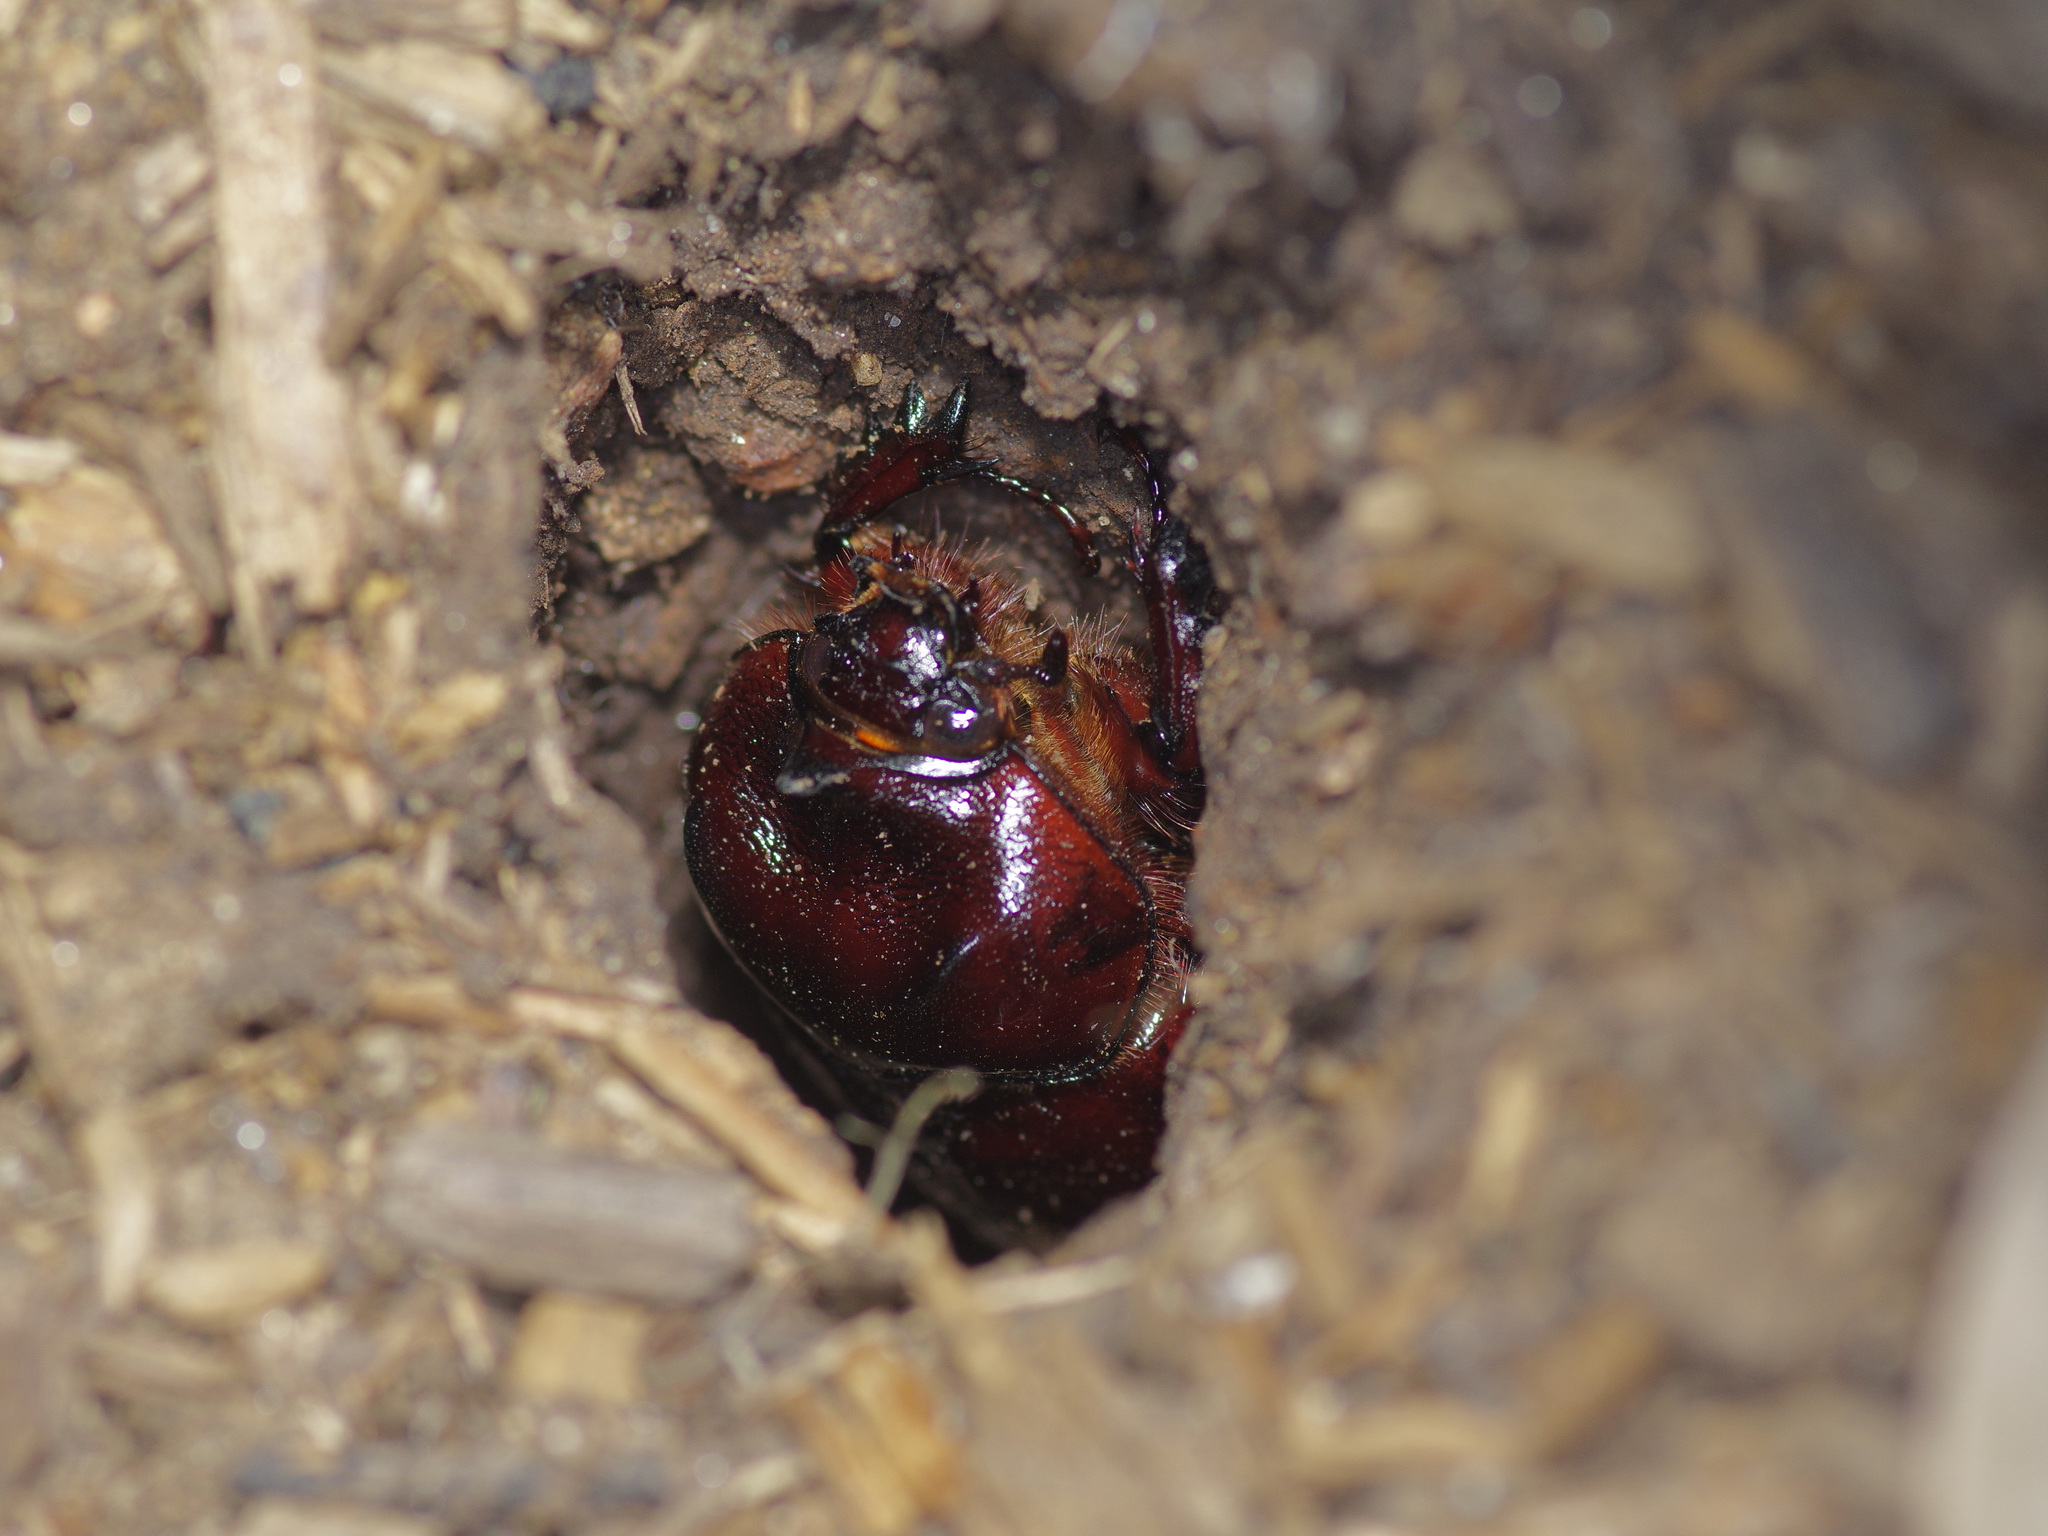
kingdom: Animalia
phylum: Arthropoda
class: Insecta
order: Coleoptera
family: Scarabaeidae
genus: Strategus
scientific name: Strategus aloeus
